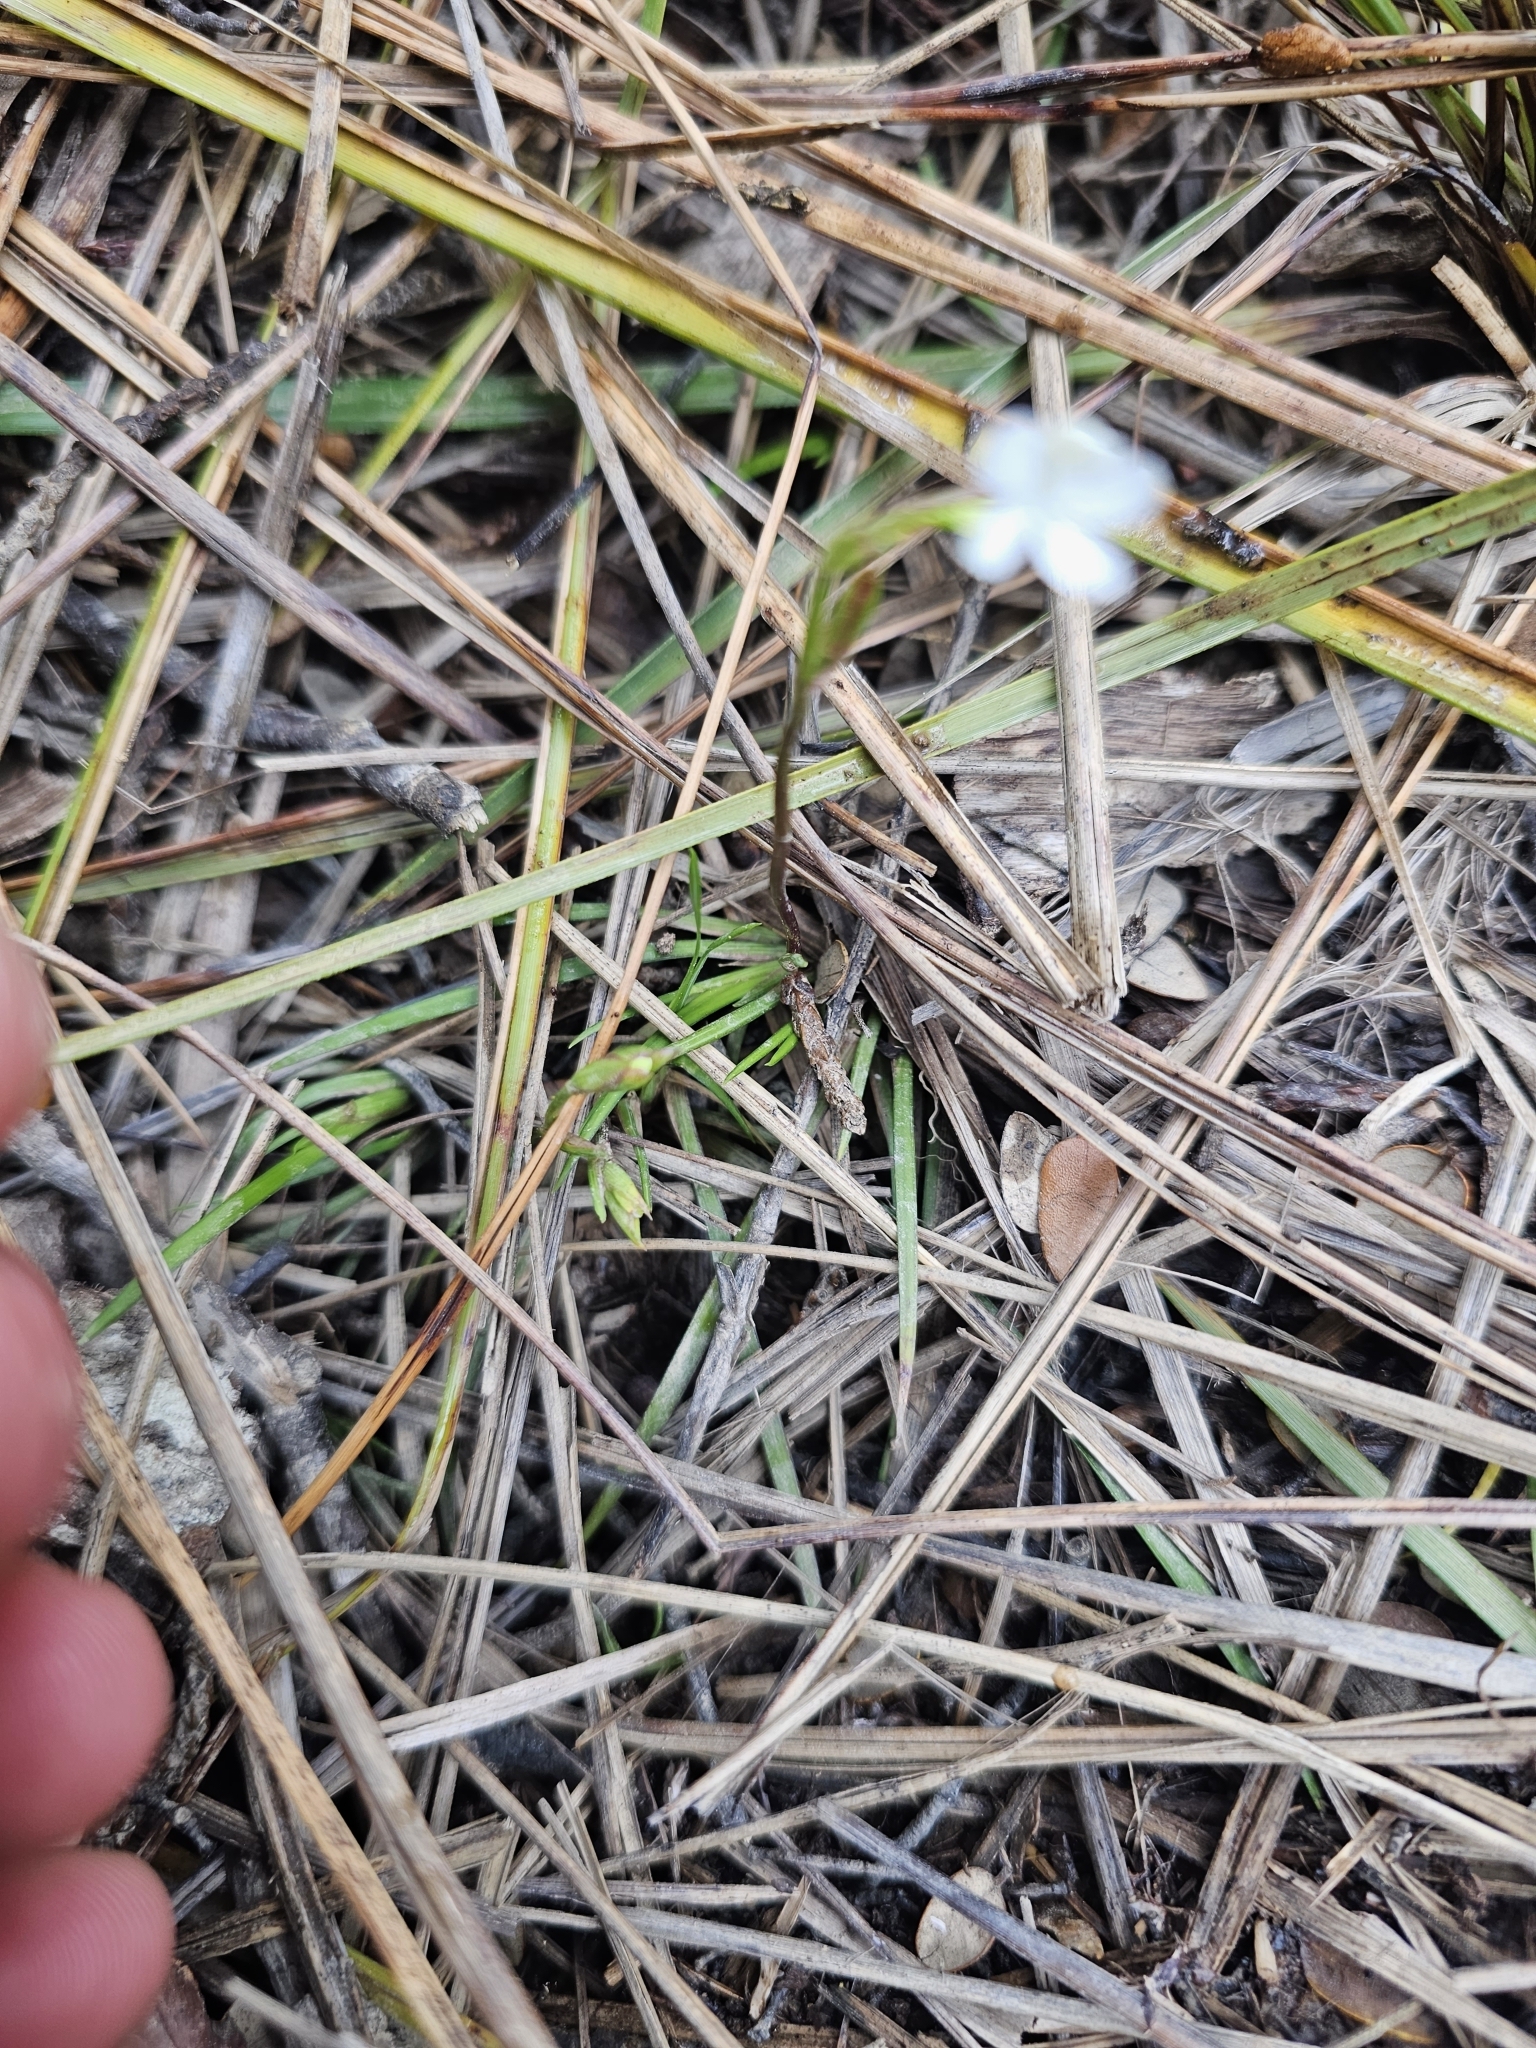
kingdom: Plantae
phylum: Tracheophyta
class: Liliopsida
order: Asparagales
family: Iridaceae
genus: Libertia
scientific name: Libertia micrantha
